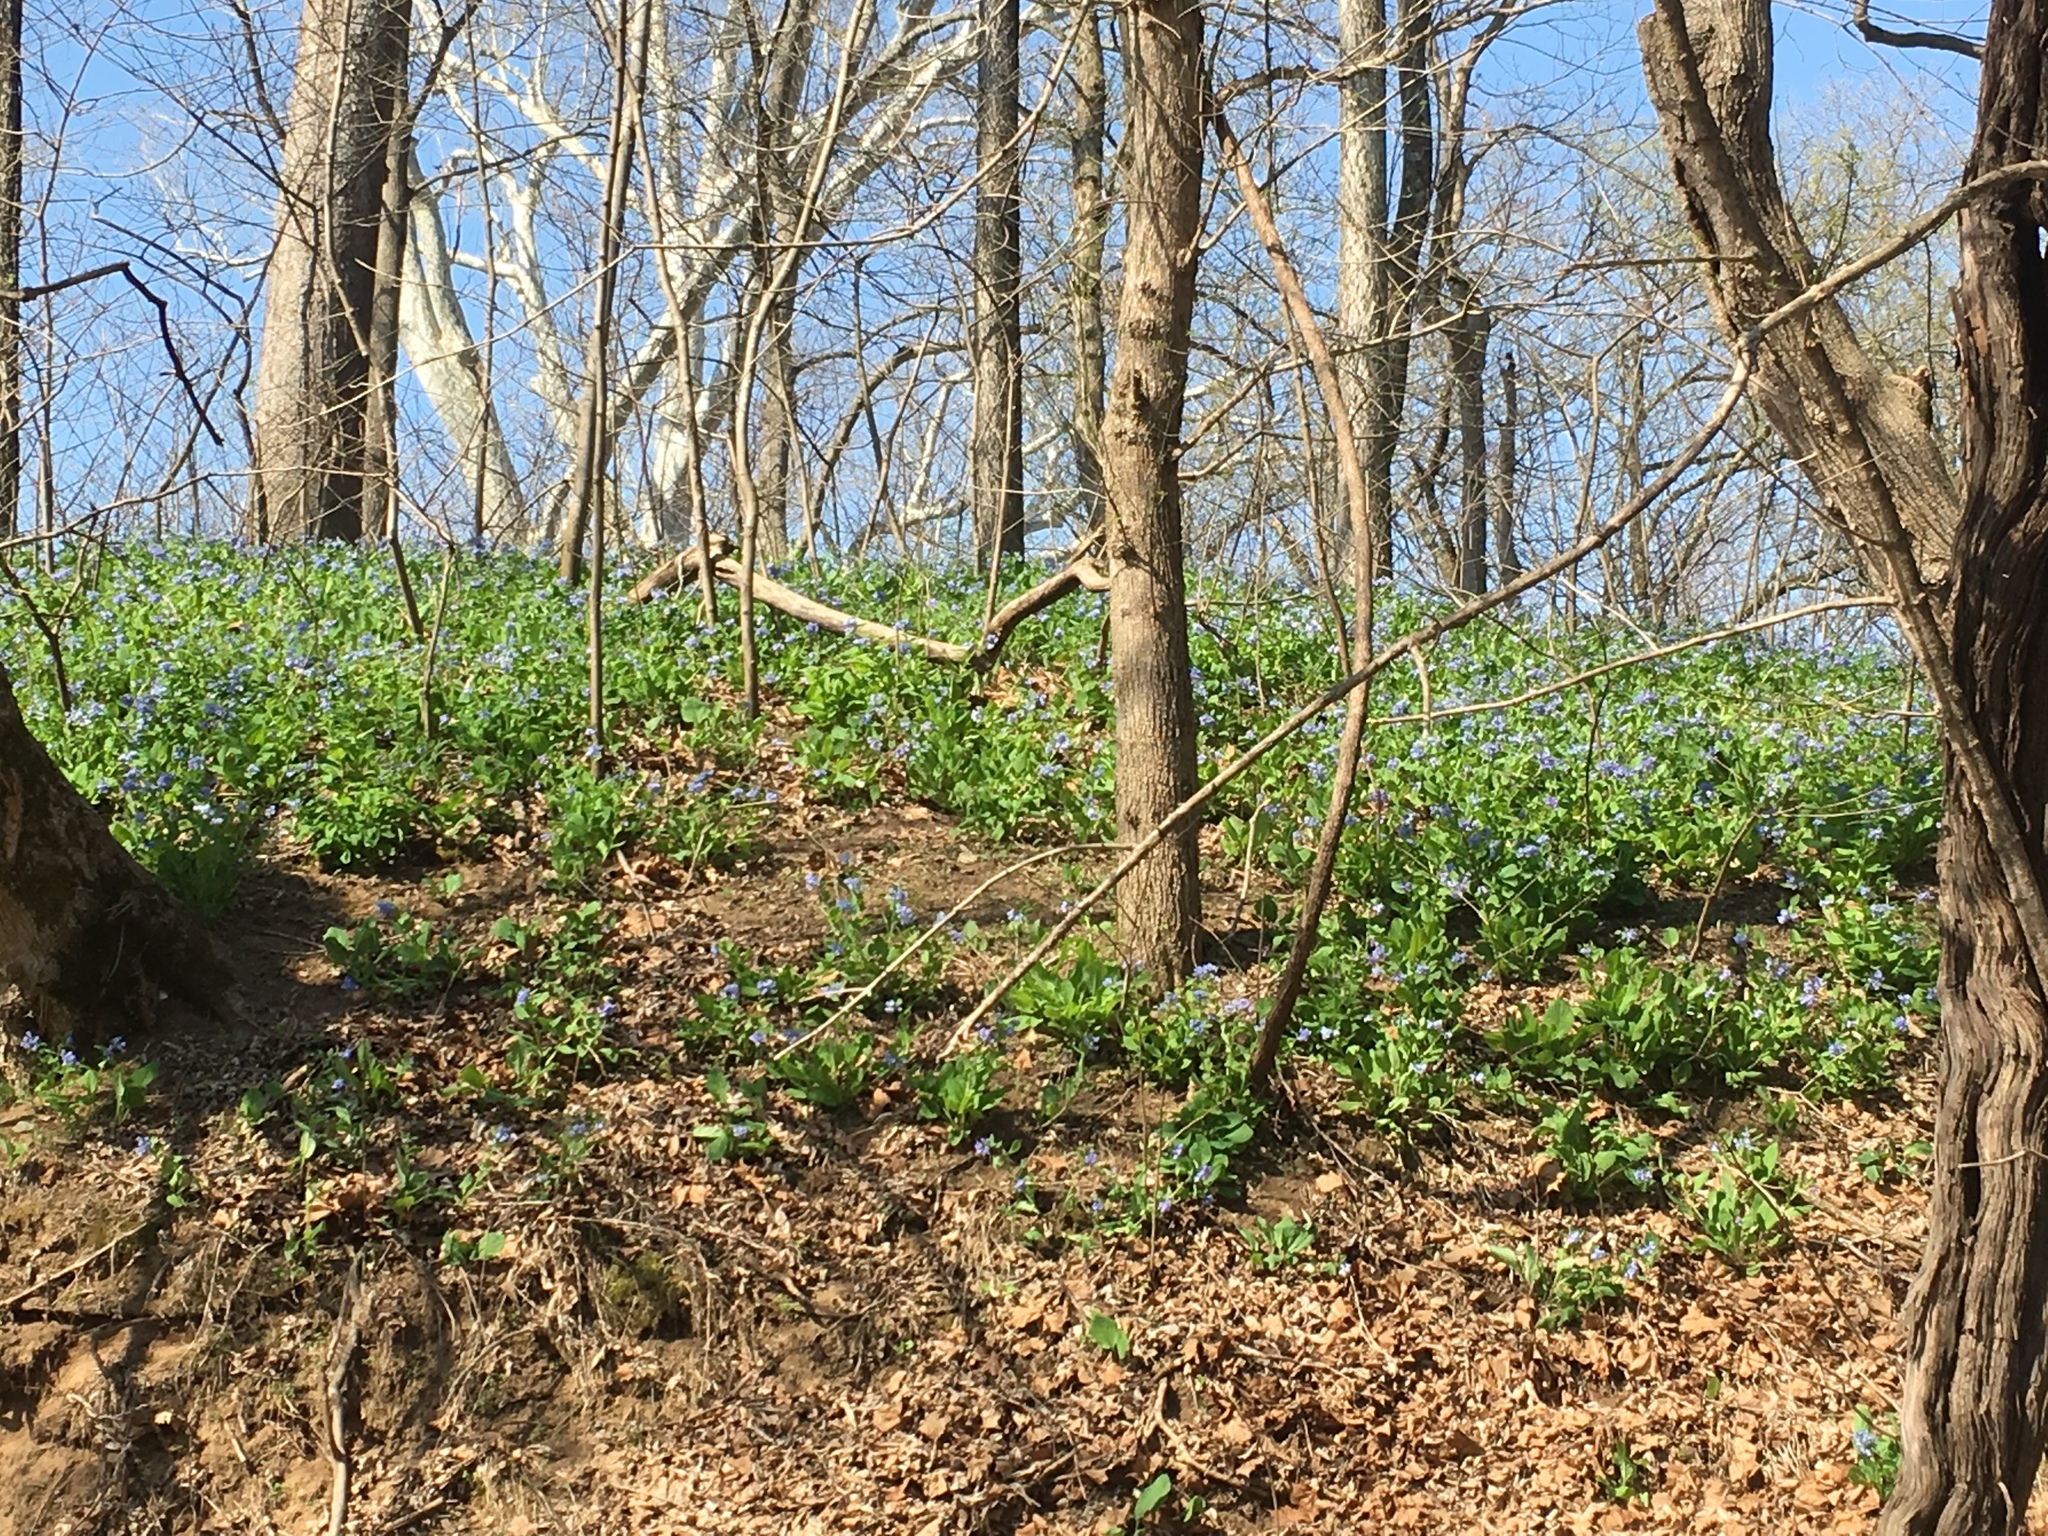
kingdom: Plantae
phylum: Tracheophyta
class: Magnoliopsida
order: Boraginales
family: Boraginaceae
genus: Mertensia
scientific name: Mertensia virginica
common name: Virginia bluebells
